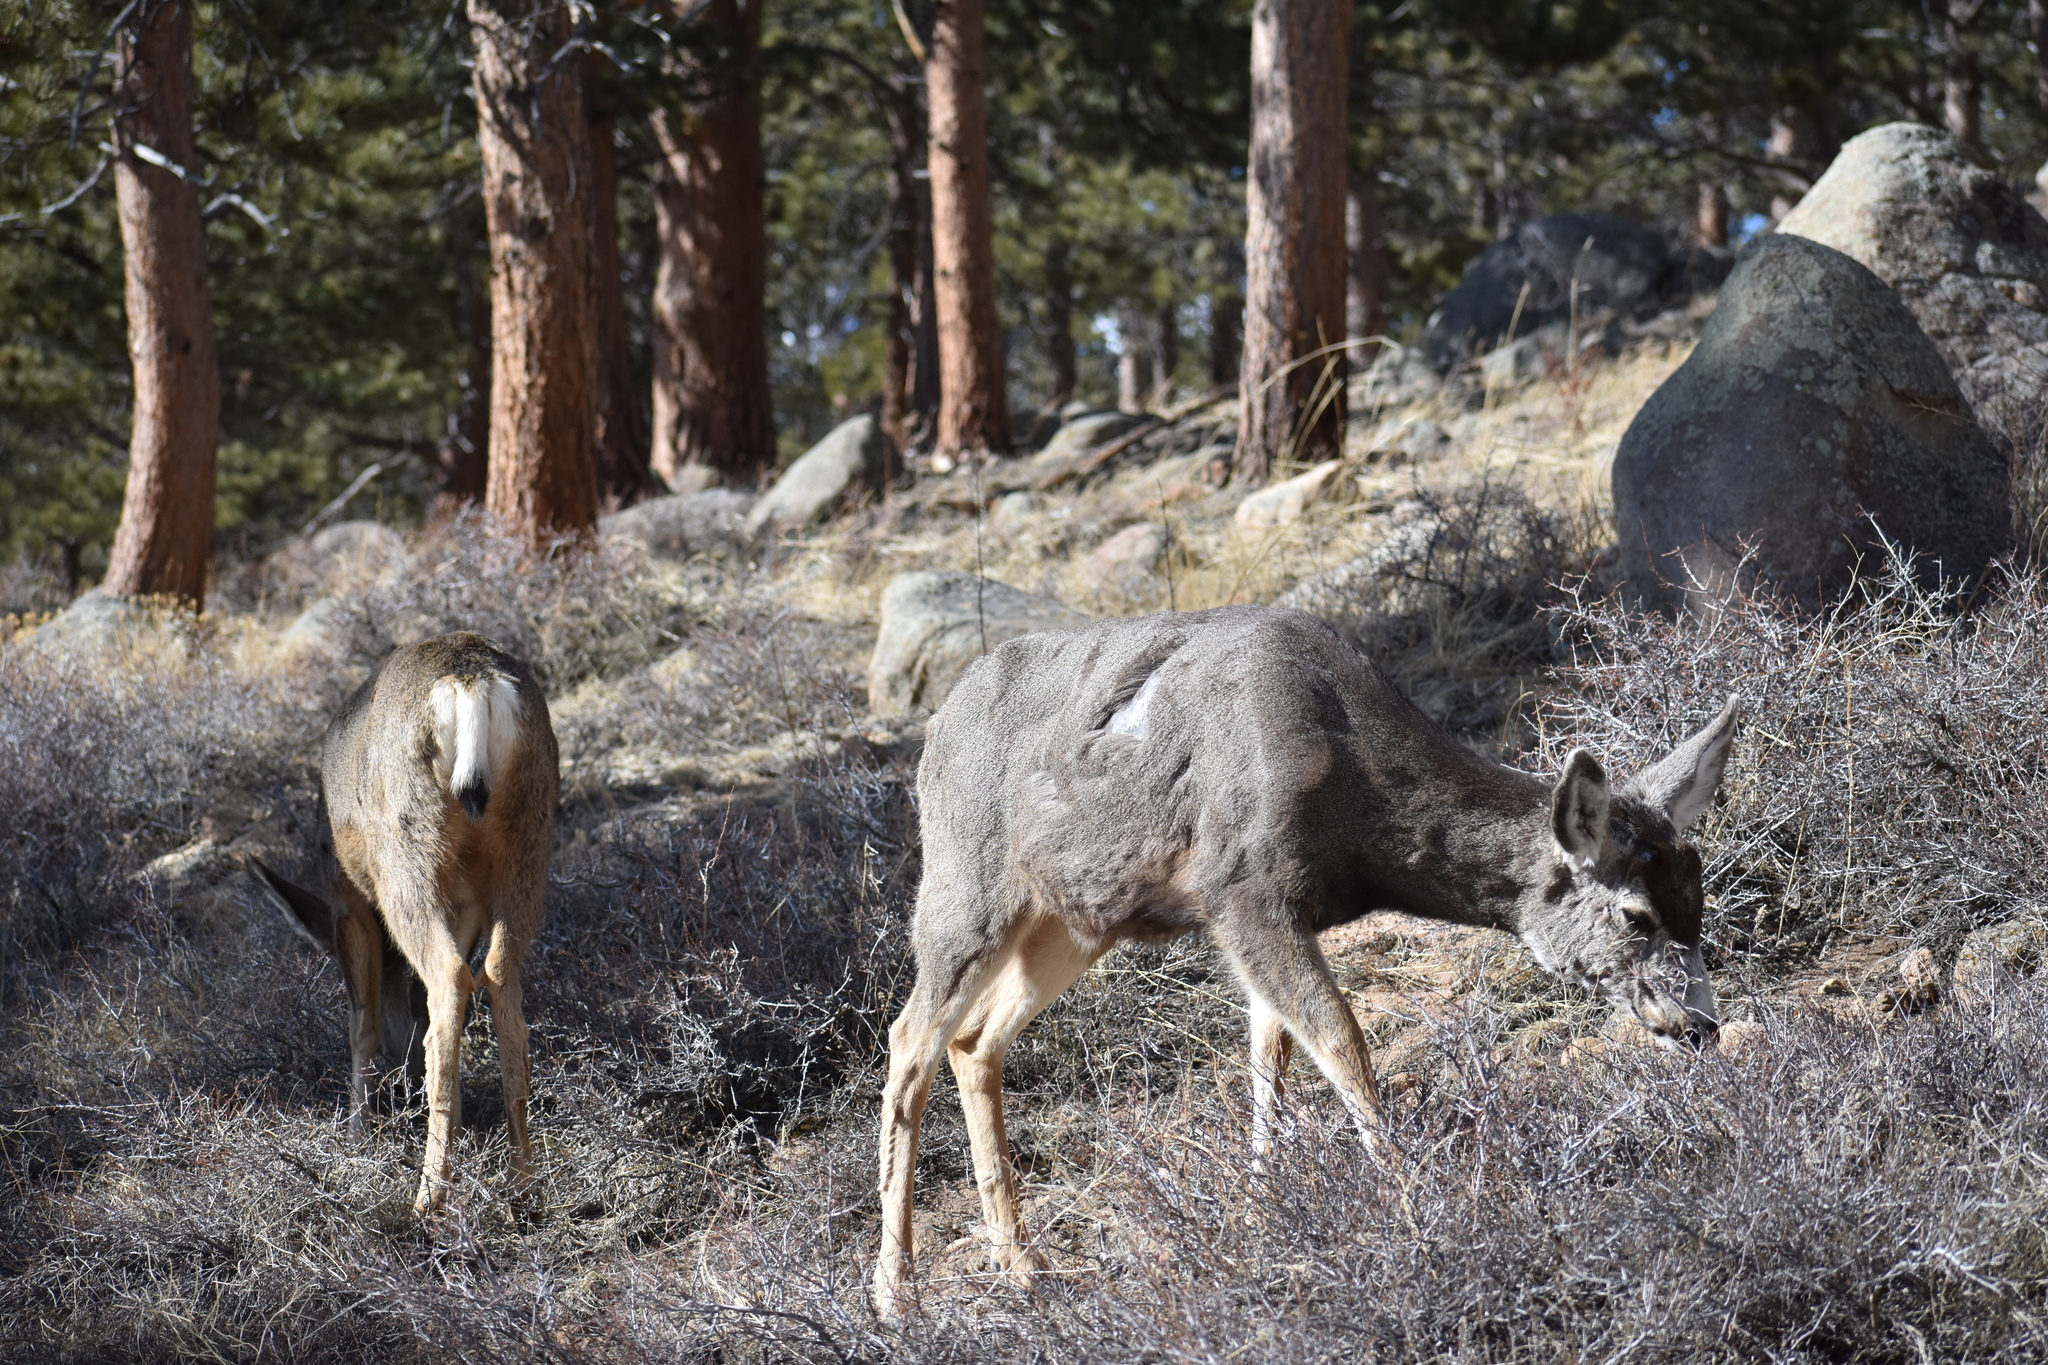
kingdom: Animalia
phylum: Chordata
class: Mammalia
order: Artiodactyla
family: Cervidae
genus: Odocoileus
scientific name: Odocoileus hemionus
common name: Mule deer
